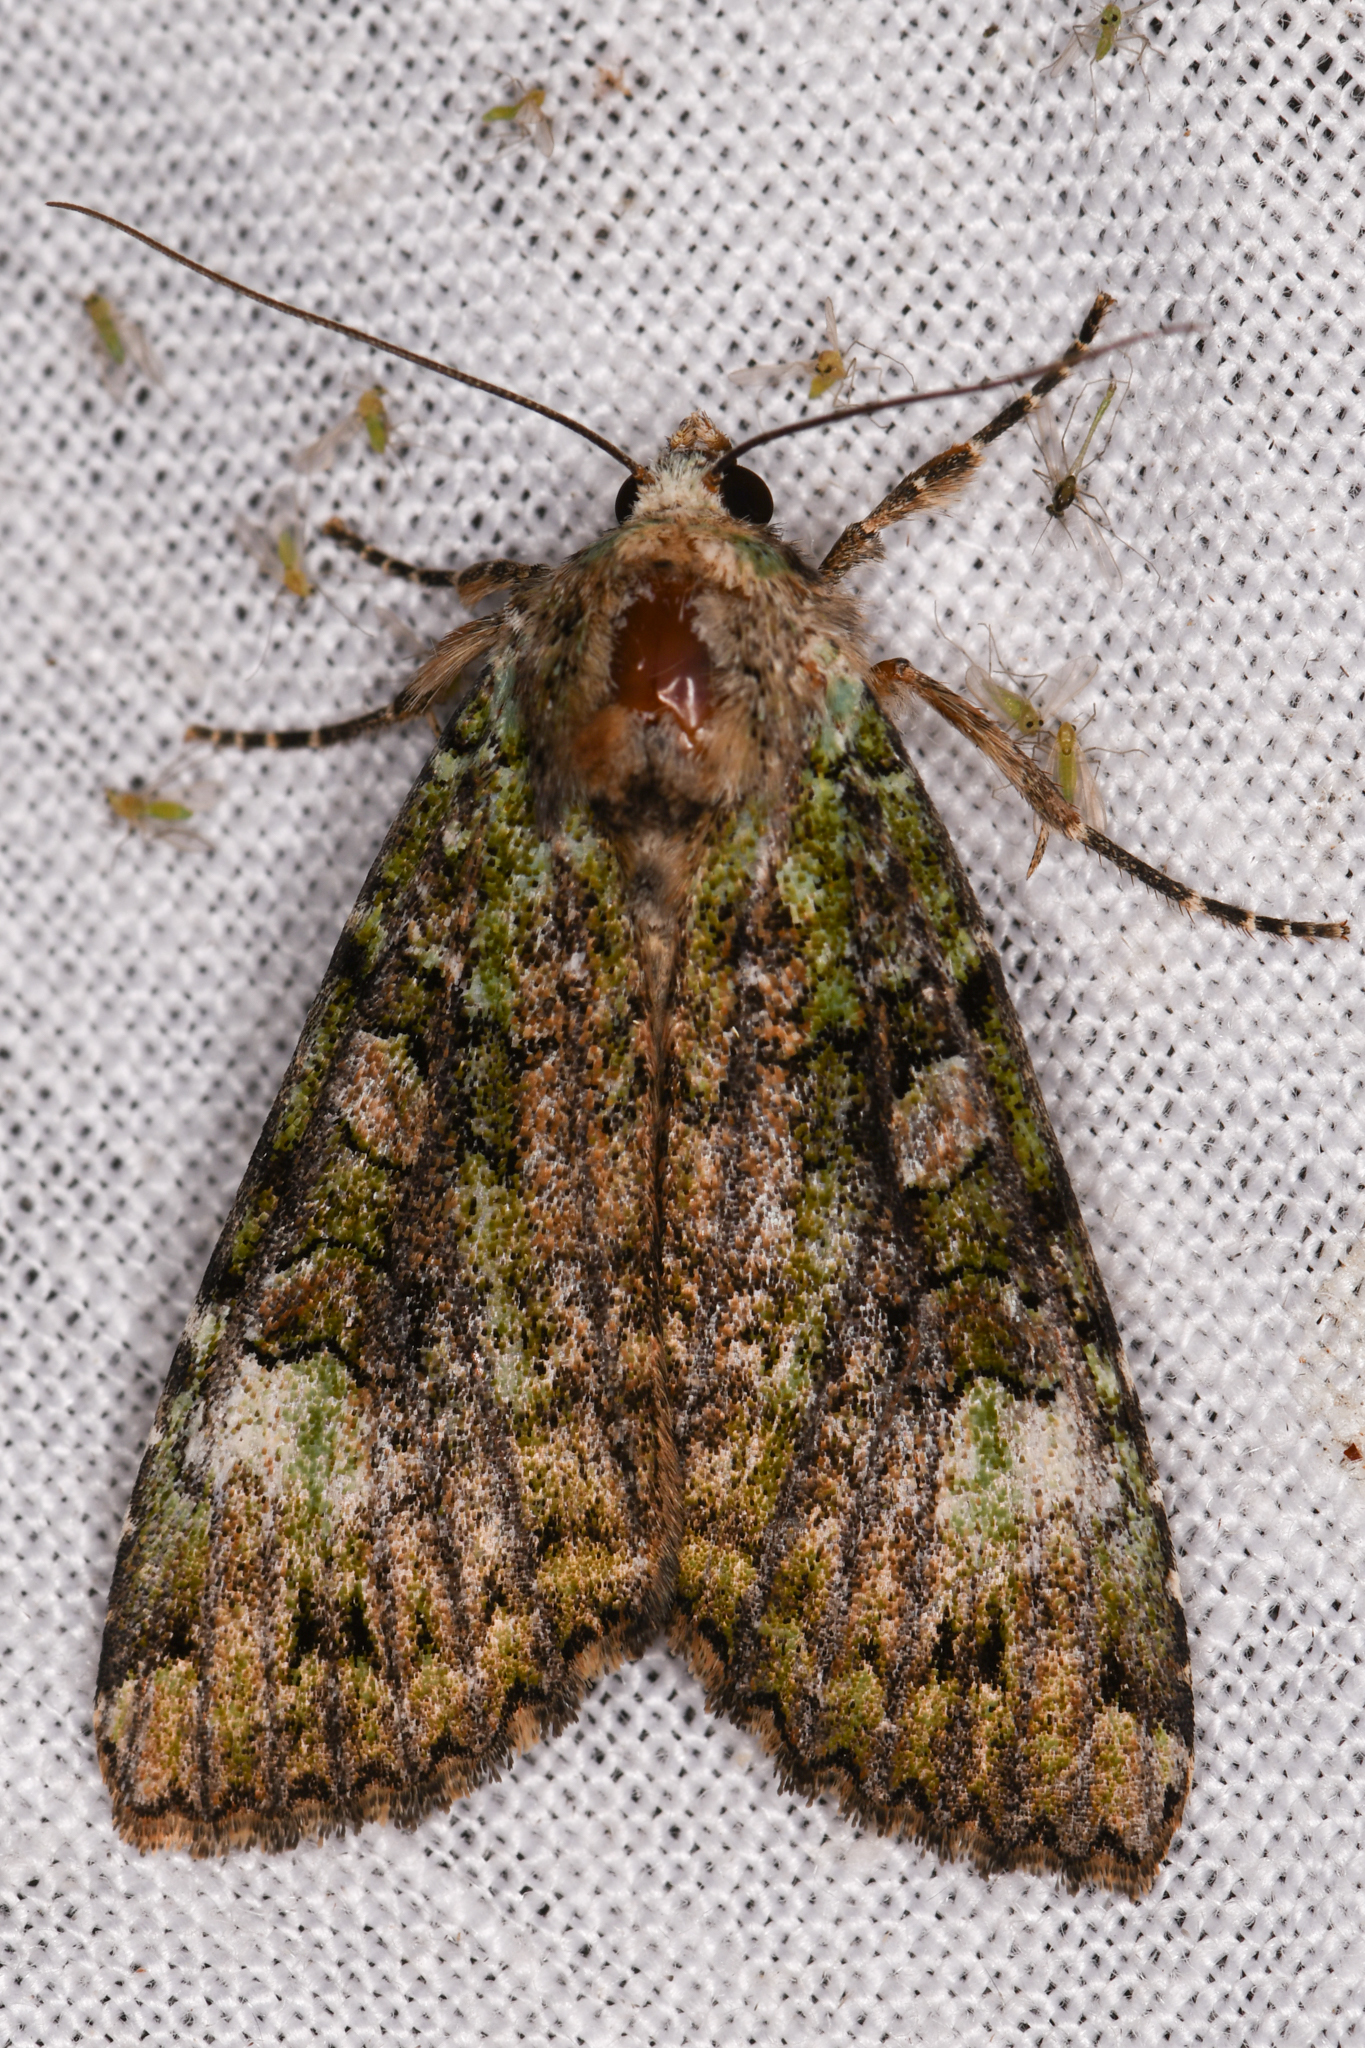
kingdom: Animalia
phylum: Arthropoda
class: Insecta
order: Lepidoptera
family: Noctuidae
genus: Anaplectoides
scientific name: Anaplectoides prasina
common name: Green arches
